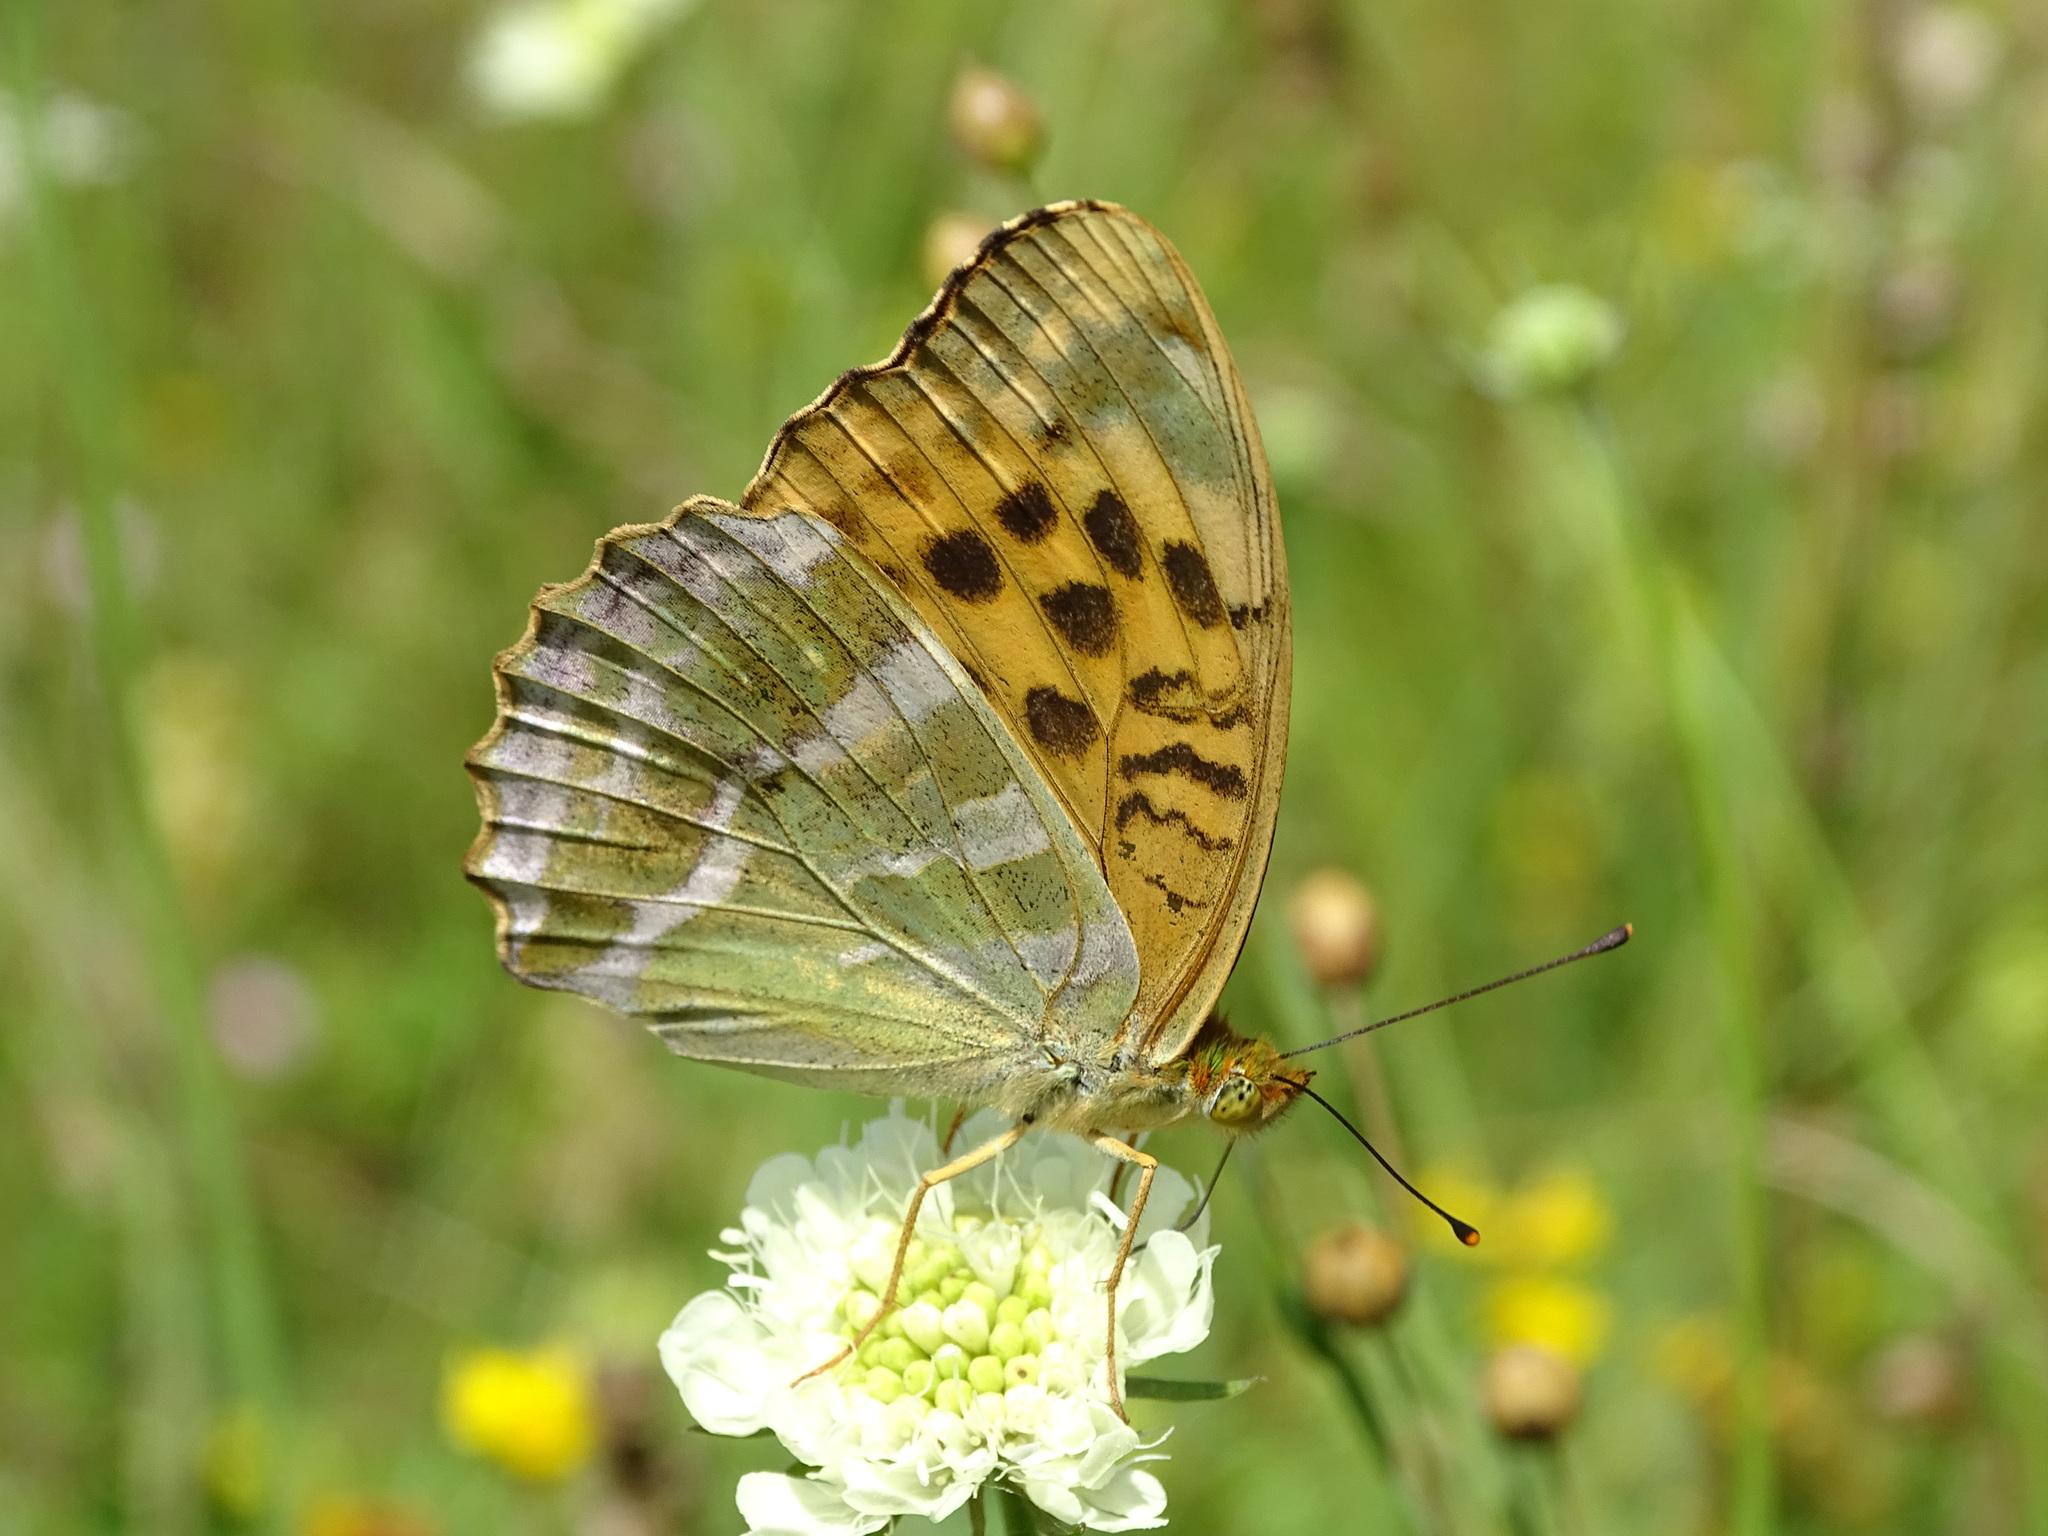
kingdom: Animalia
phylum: Arthropoda
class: Insecta
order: Lepidoptera
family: Nymphalidae
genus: Argynnis
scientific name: Argynnis paphia
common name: Silver-washed fritillary
